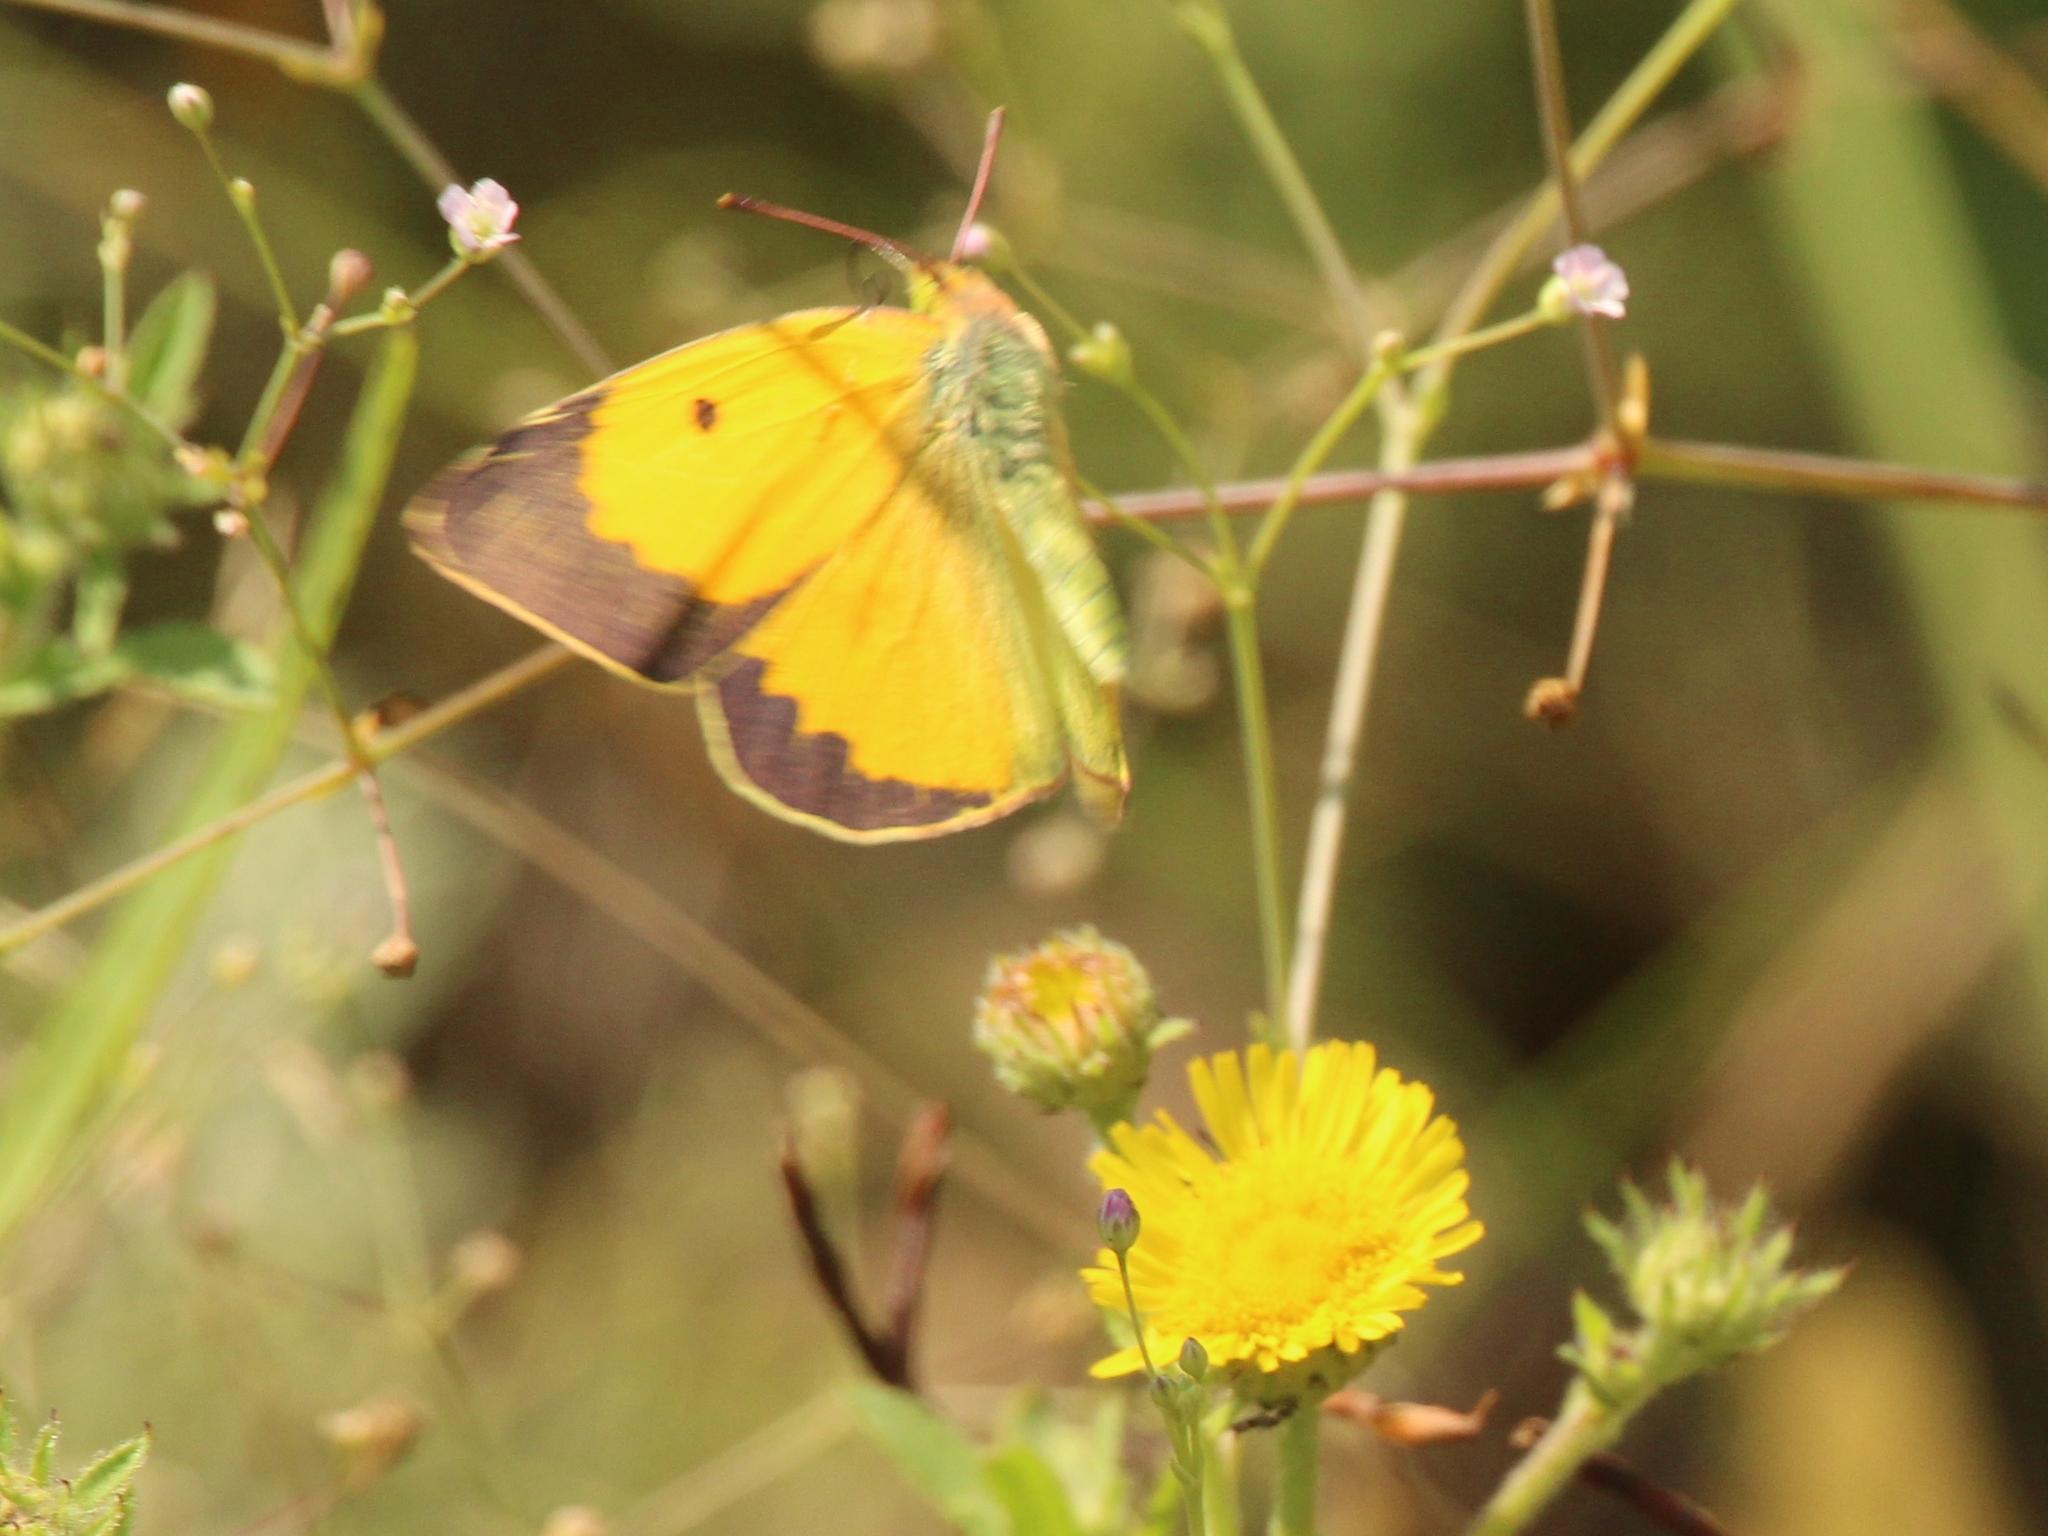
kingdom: Animalia
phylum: Arthropoda
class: Insecta
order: Lepidoptera
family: Pieridae
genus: Colias
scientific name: Colias croceus
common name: Clouded yellow
